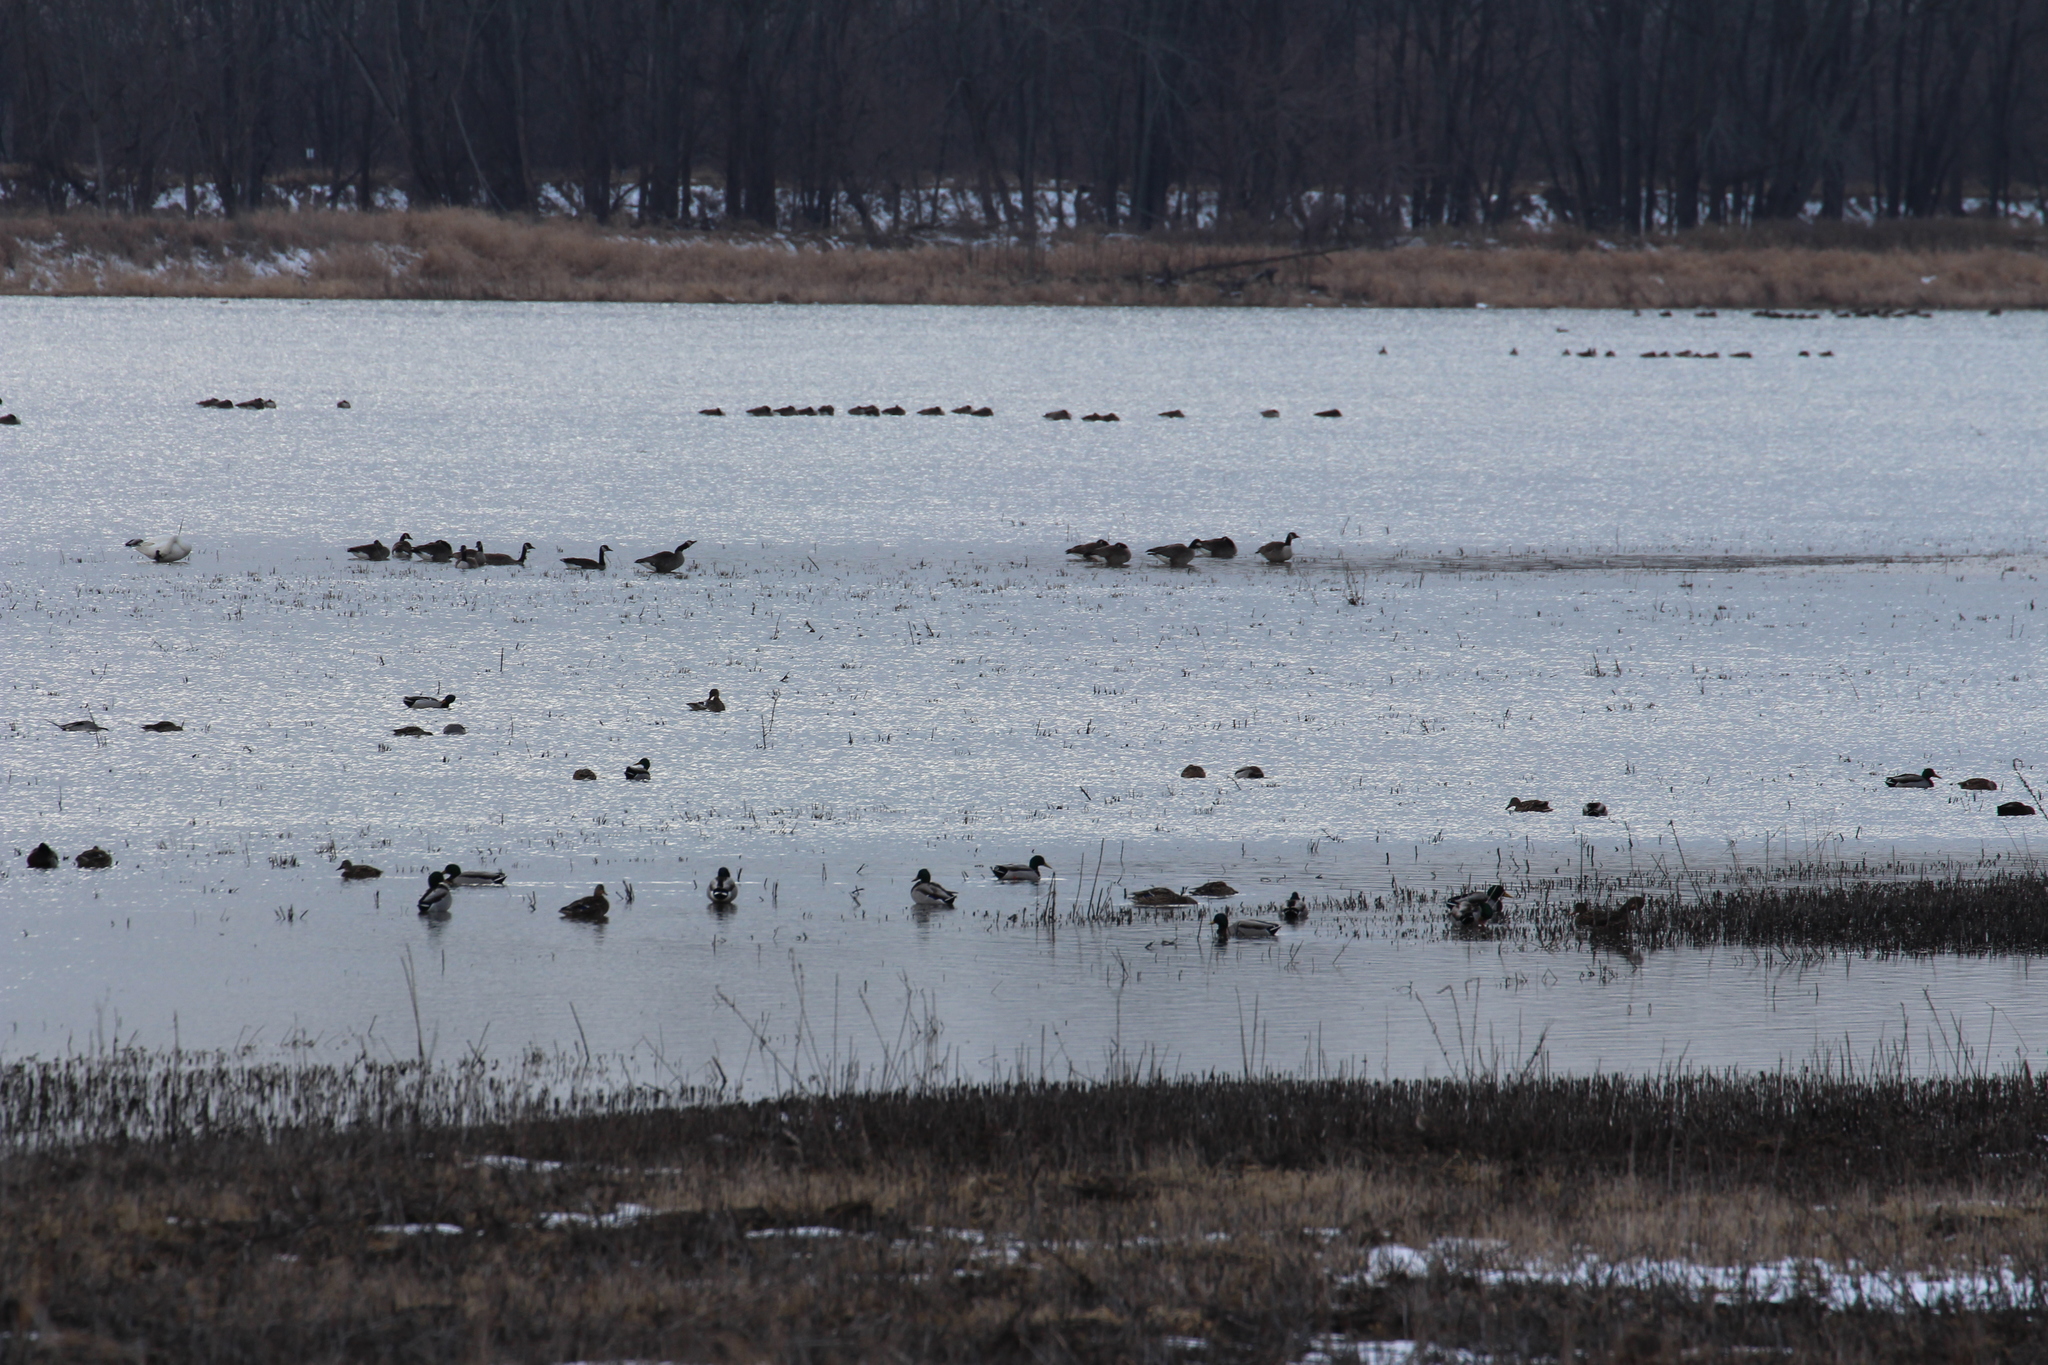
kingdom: Animalia
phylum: Chordata
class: Aves
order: Anseriformes
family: Anatidae
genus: Anas
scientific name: Anas platyrhynchos
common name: Mallard
